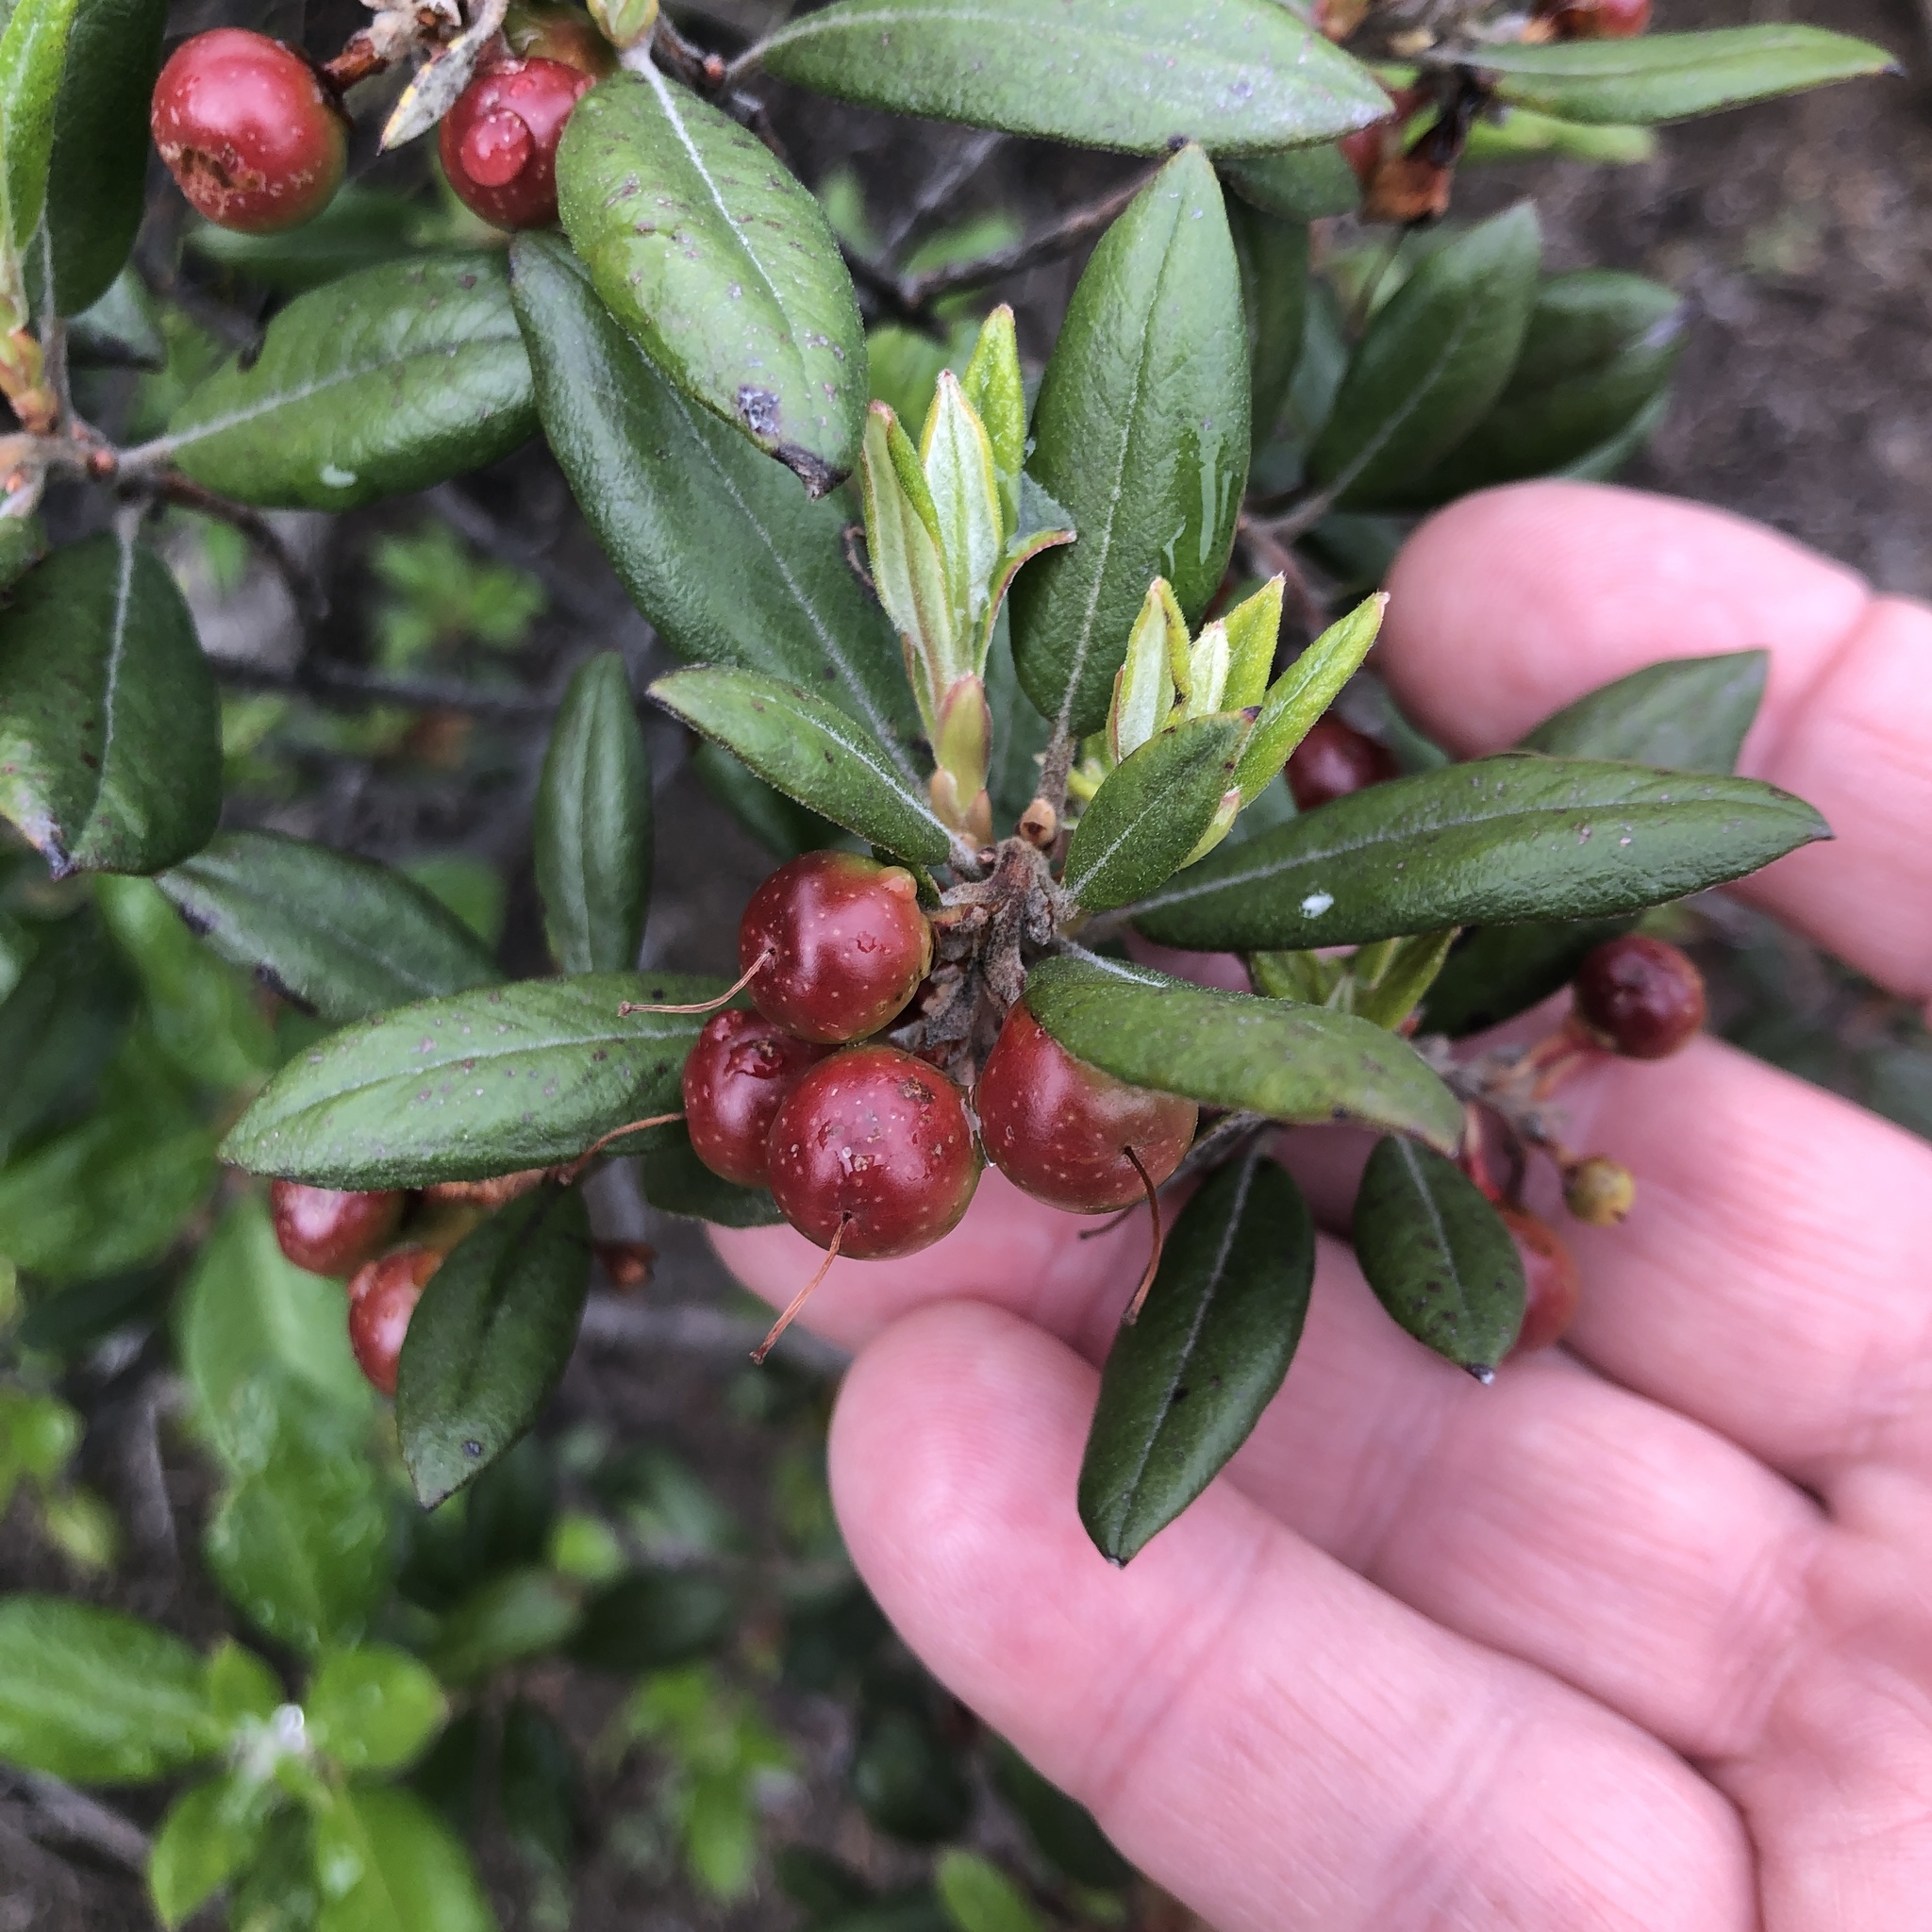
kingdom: Plantae
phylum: Tracheophyta
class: Magnoliopsida
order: Ericales
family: Ericaceae
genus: Arctostaphylos
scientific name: Arctostaphylos bicolor
